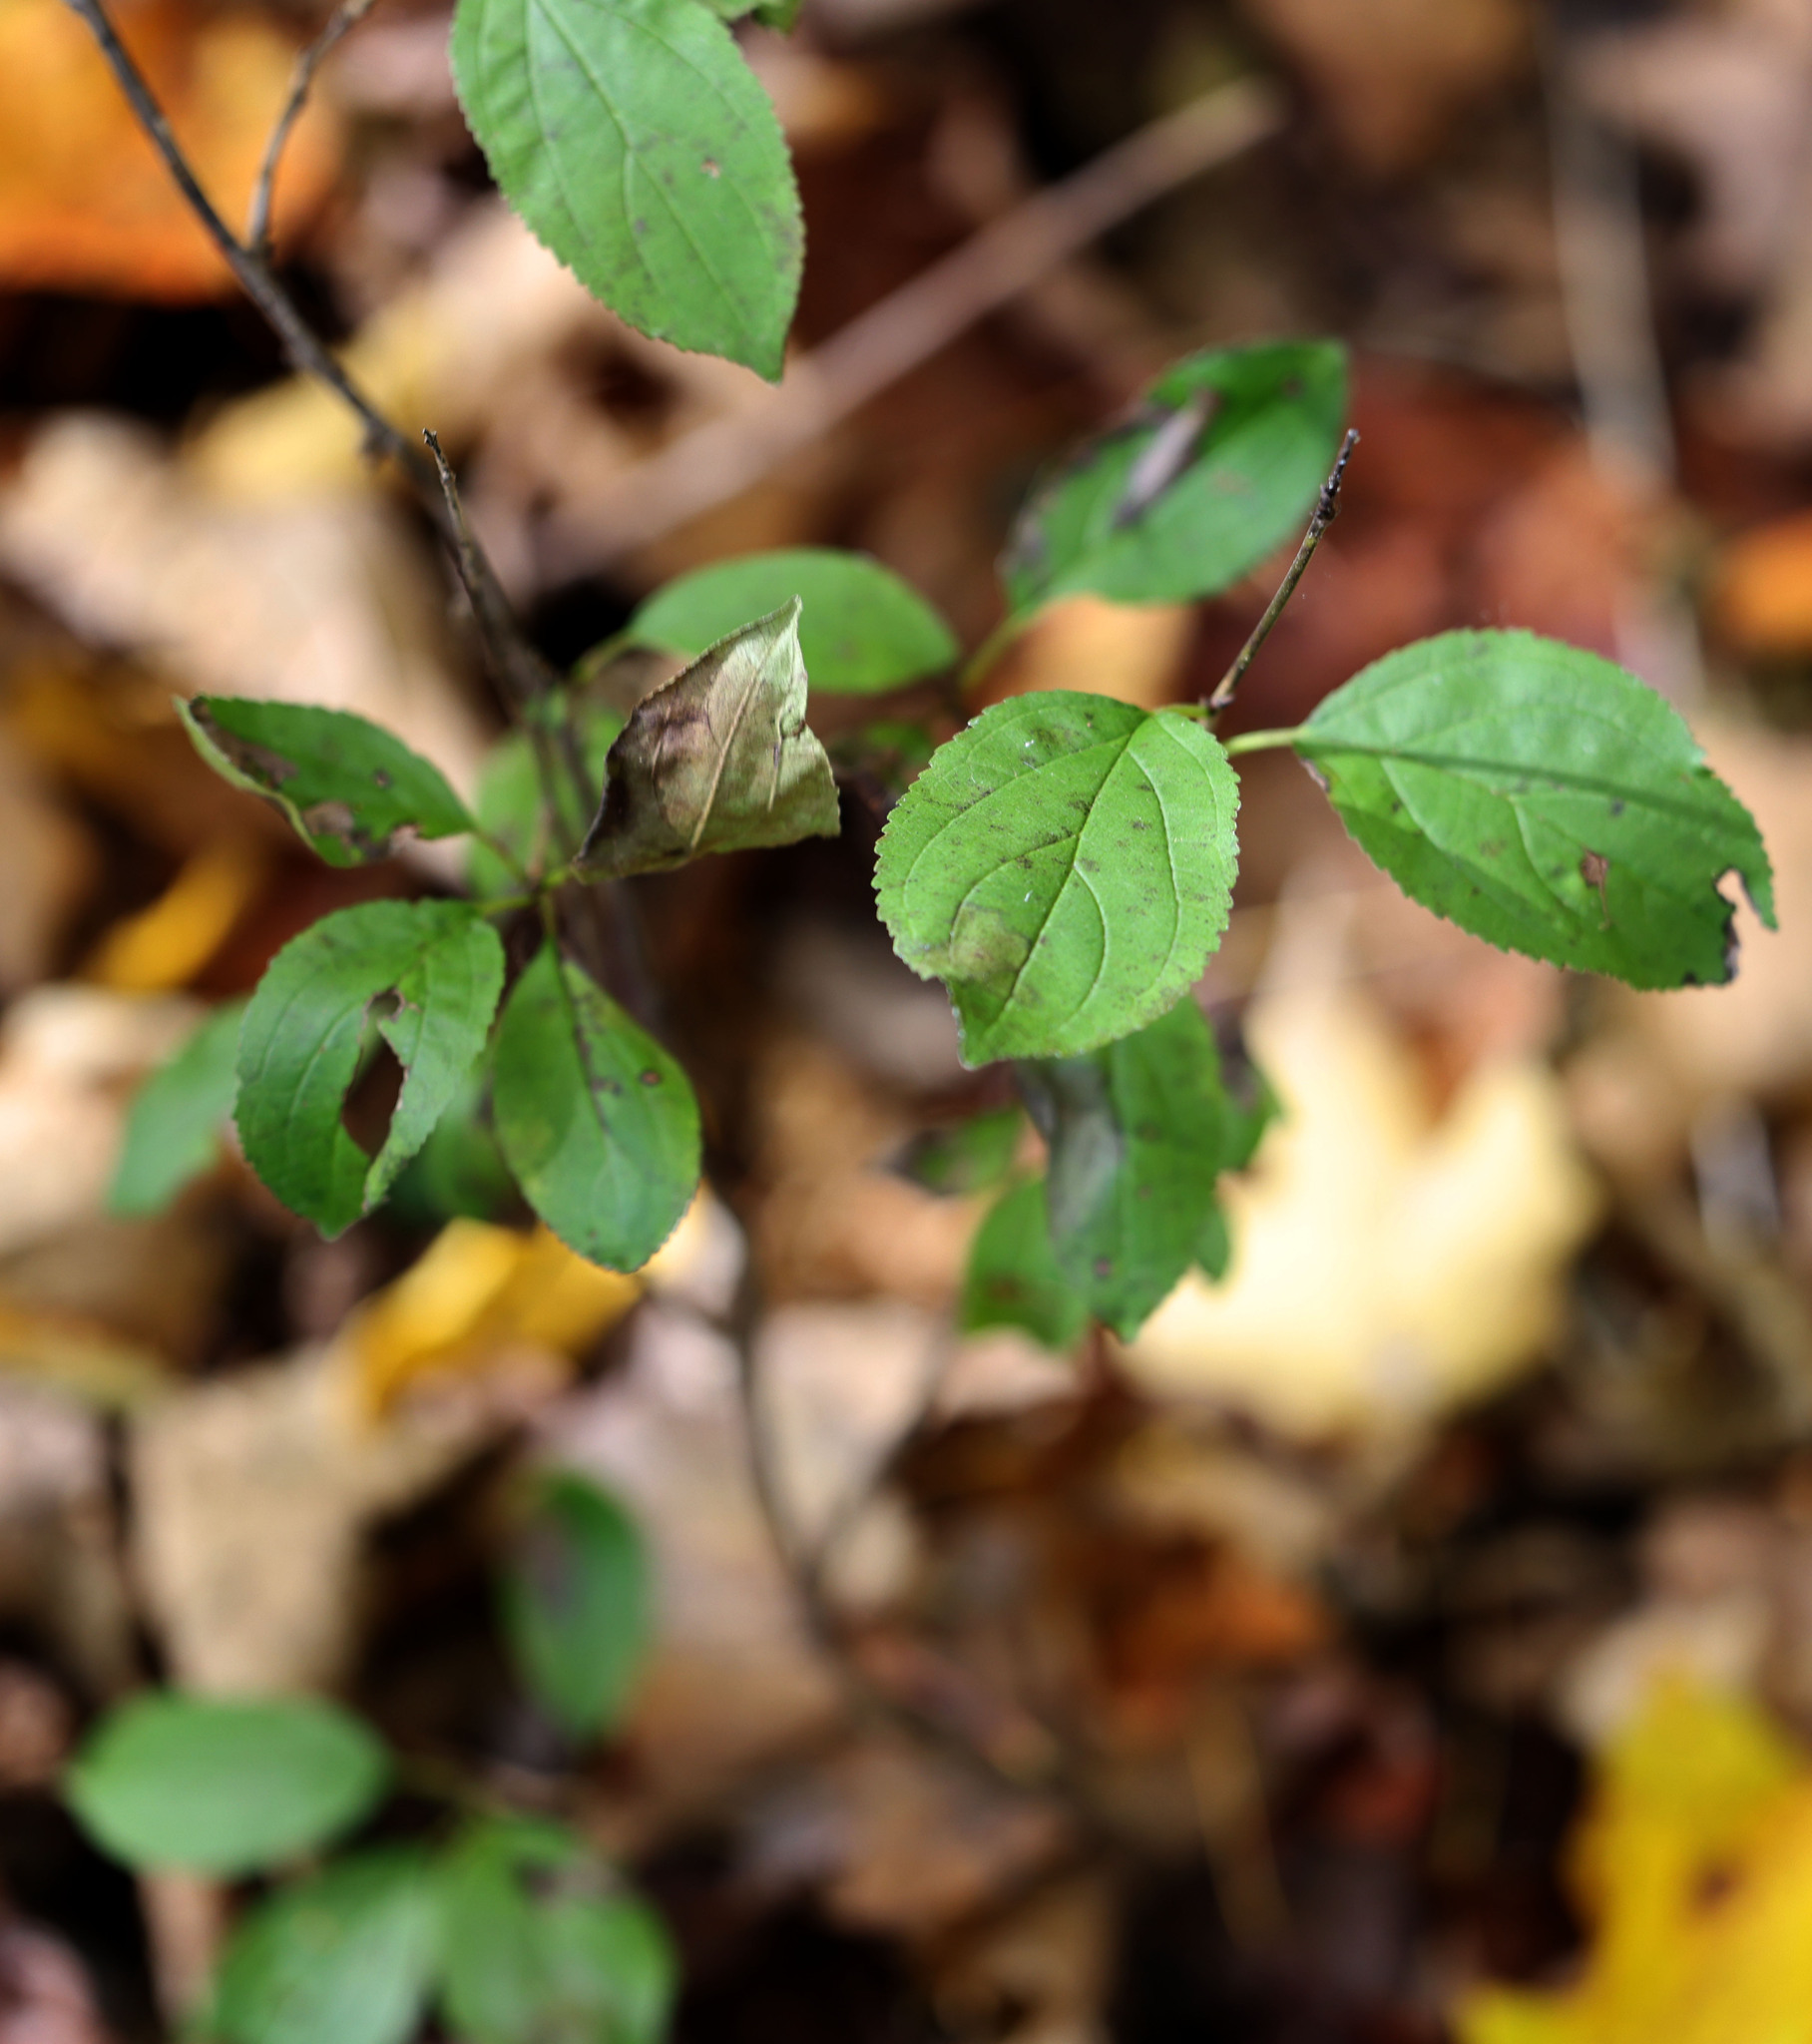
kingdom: Plantae
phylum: Tracheophyta
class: Magnoliopsida
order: Rosales
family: Rhamnaceae
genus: Rhamnus
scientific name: Rhamnus cathartica
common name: Common buckthorn
